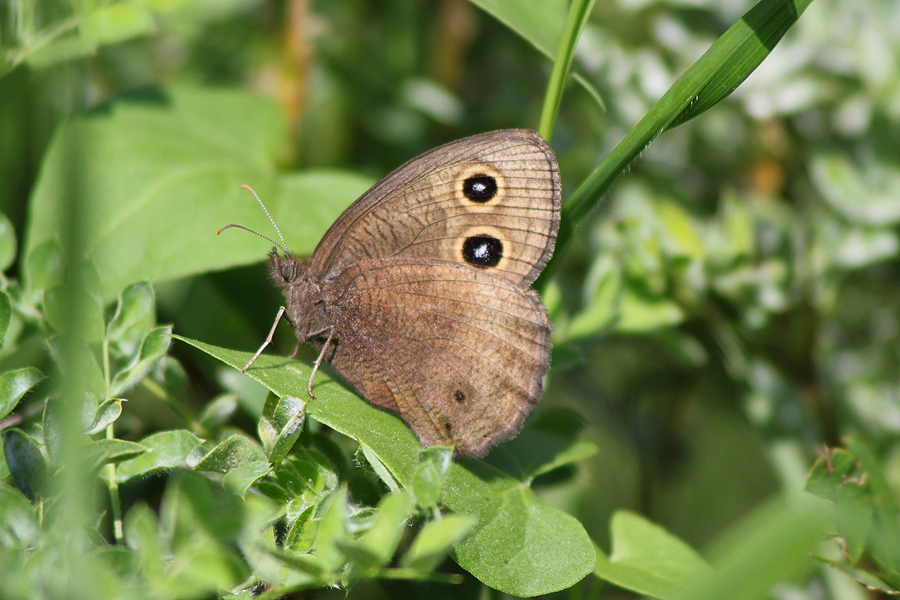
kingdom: Animalia
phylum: Arthropoda
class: Insecta
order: Lepidoptera
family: Nymphalidae
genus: Cercyonis
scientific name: Cercyonis pegala
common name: Common wood-nymph
